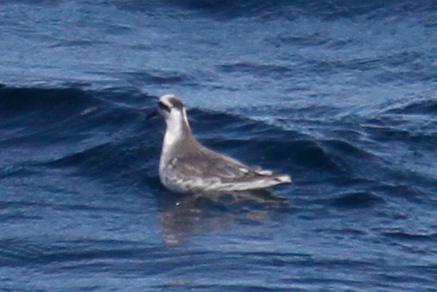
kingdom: Animalia
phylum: Chordata
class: Aves
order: Charadriiformes
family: Scolopacidae
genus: Phalaropus
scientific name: Phalaropus fulicarius
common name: Red phalarope
